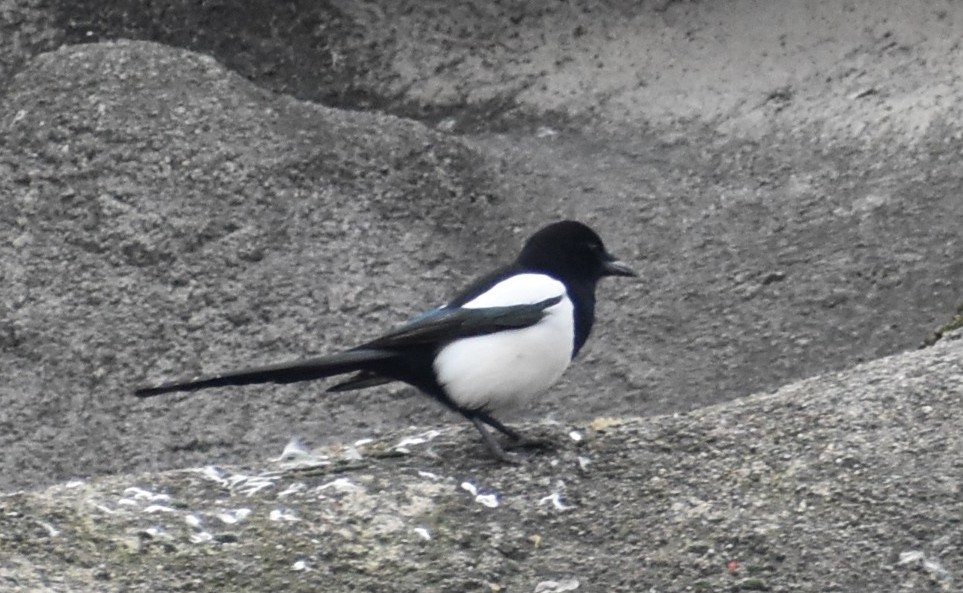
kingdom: Animalia
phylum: Chordata
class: Aves
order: Passeriformes
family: Corvidae
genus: Pica
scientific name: Pica pica
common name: Eurasian magpie
